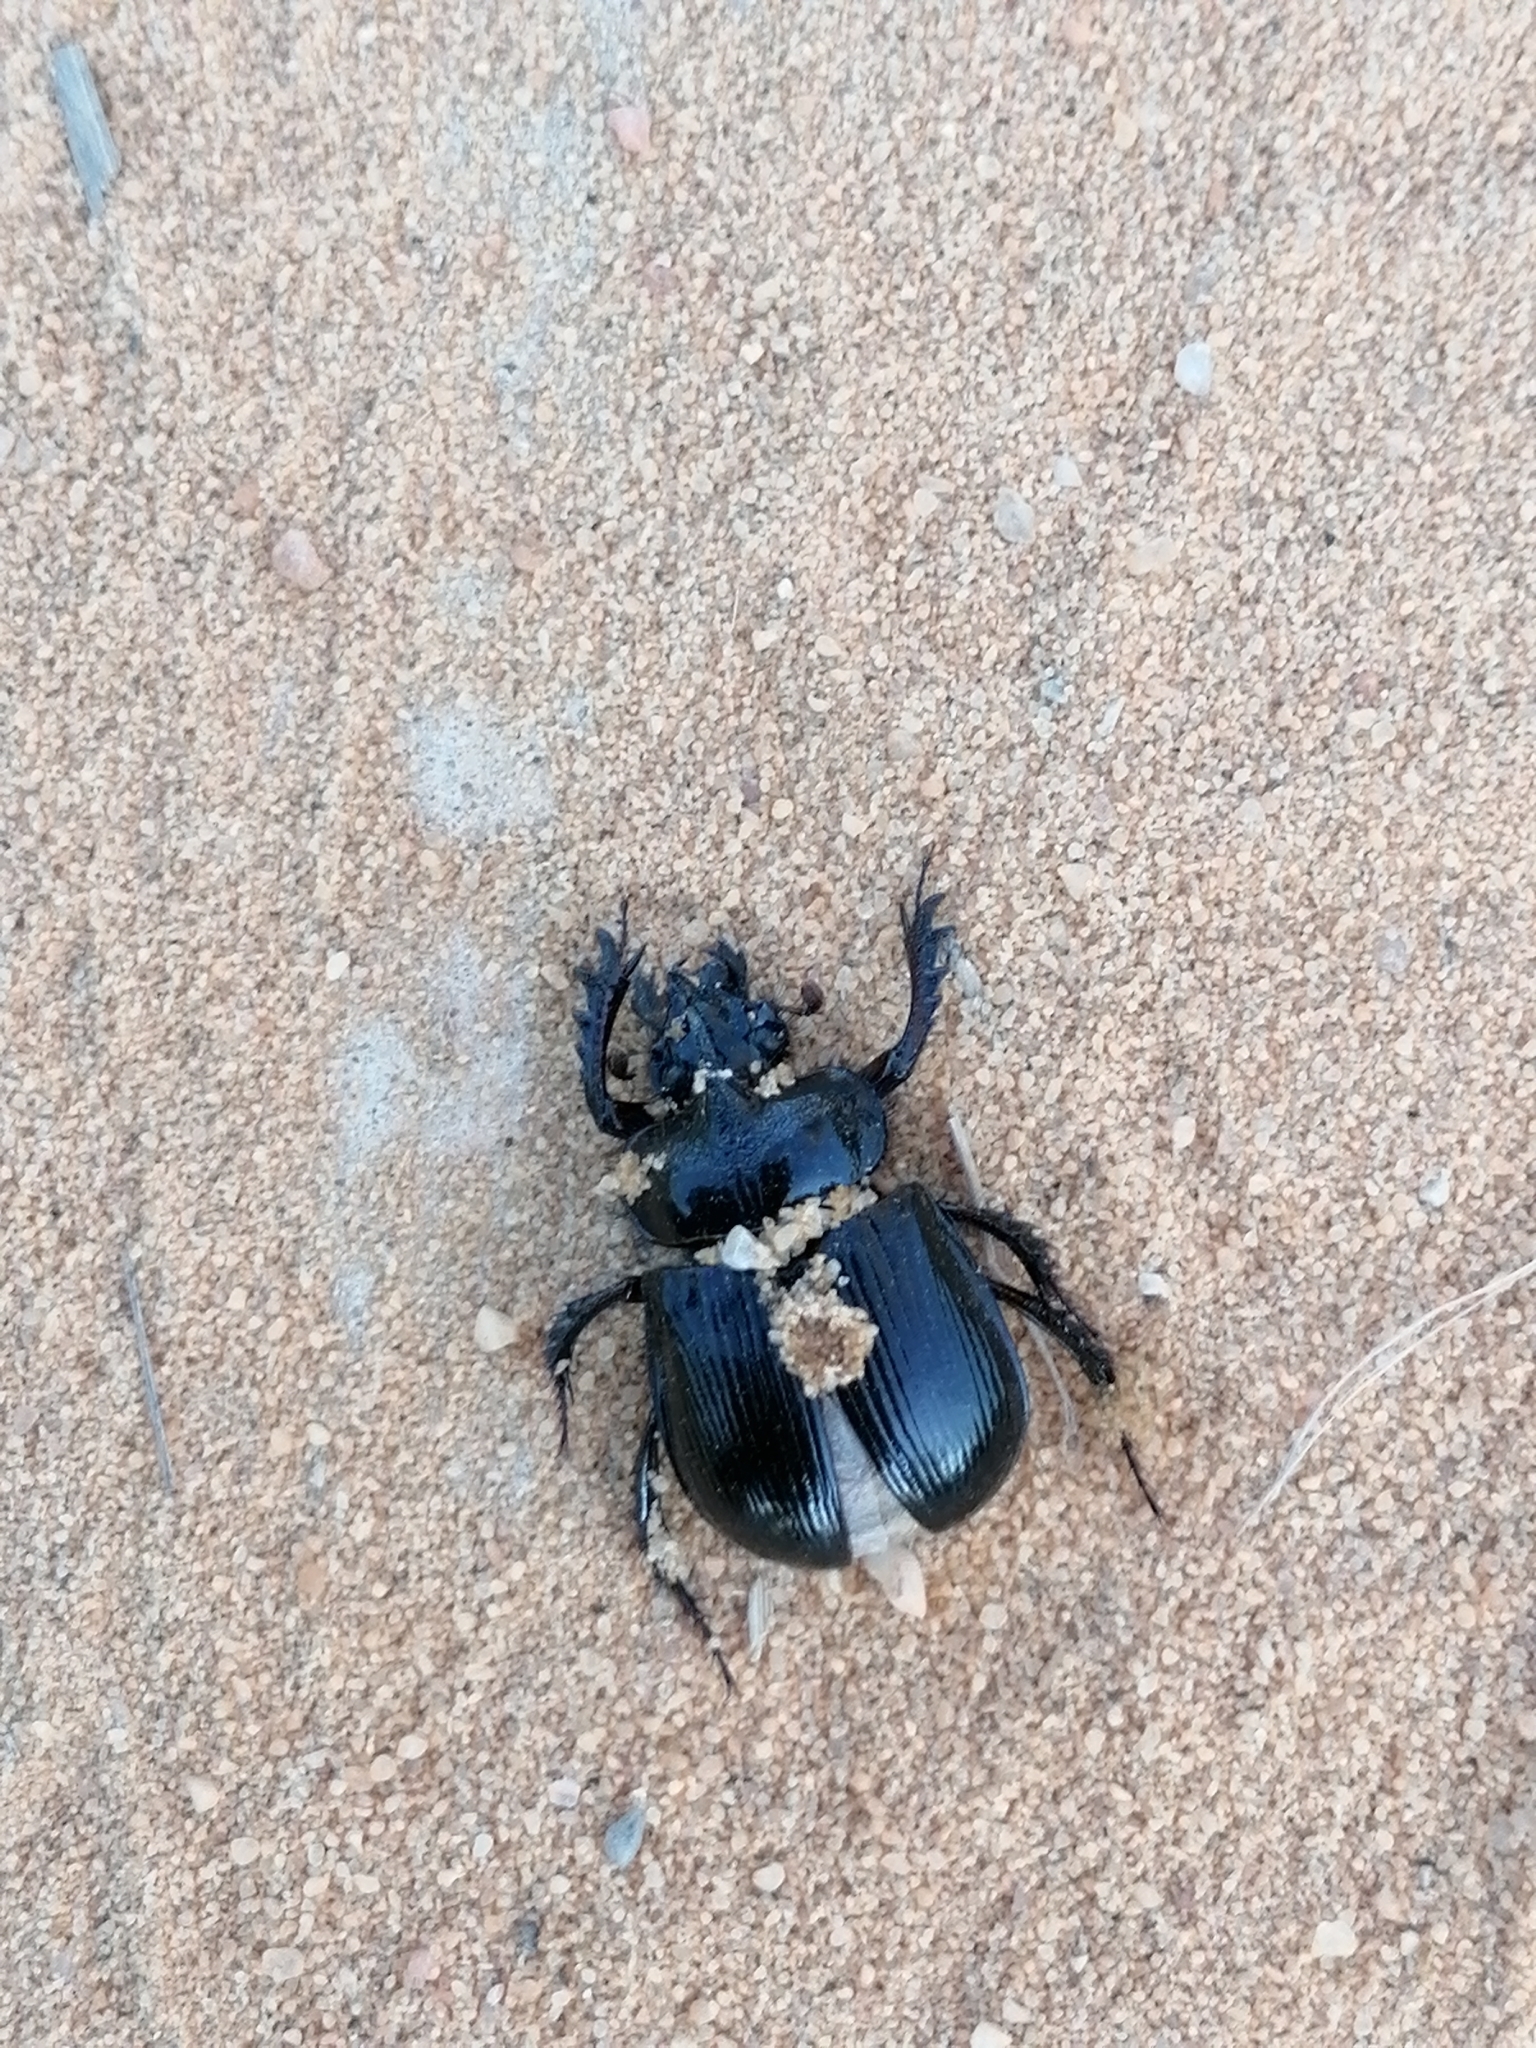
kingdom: Animalia
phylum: Arthropoda
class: Insecta
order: Coleoptera
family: Geotrupidae
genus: Ceratophyus
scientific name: Ceratophyus hoffmannseggi
